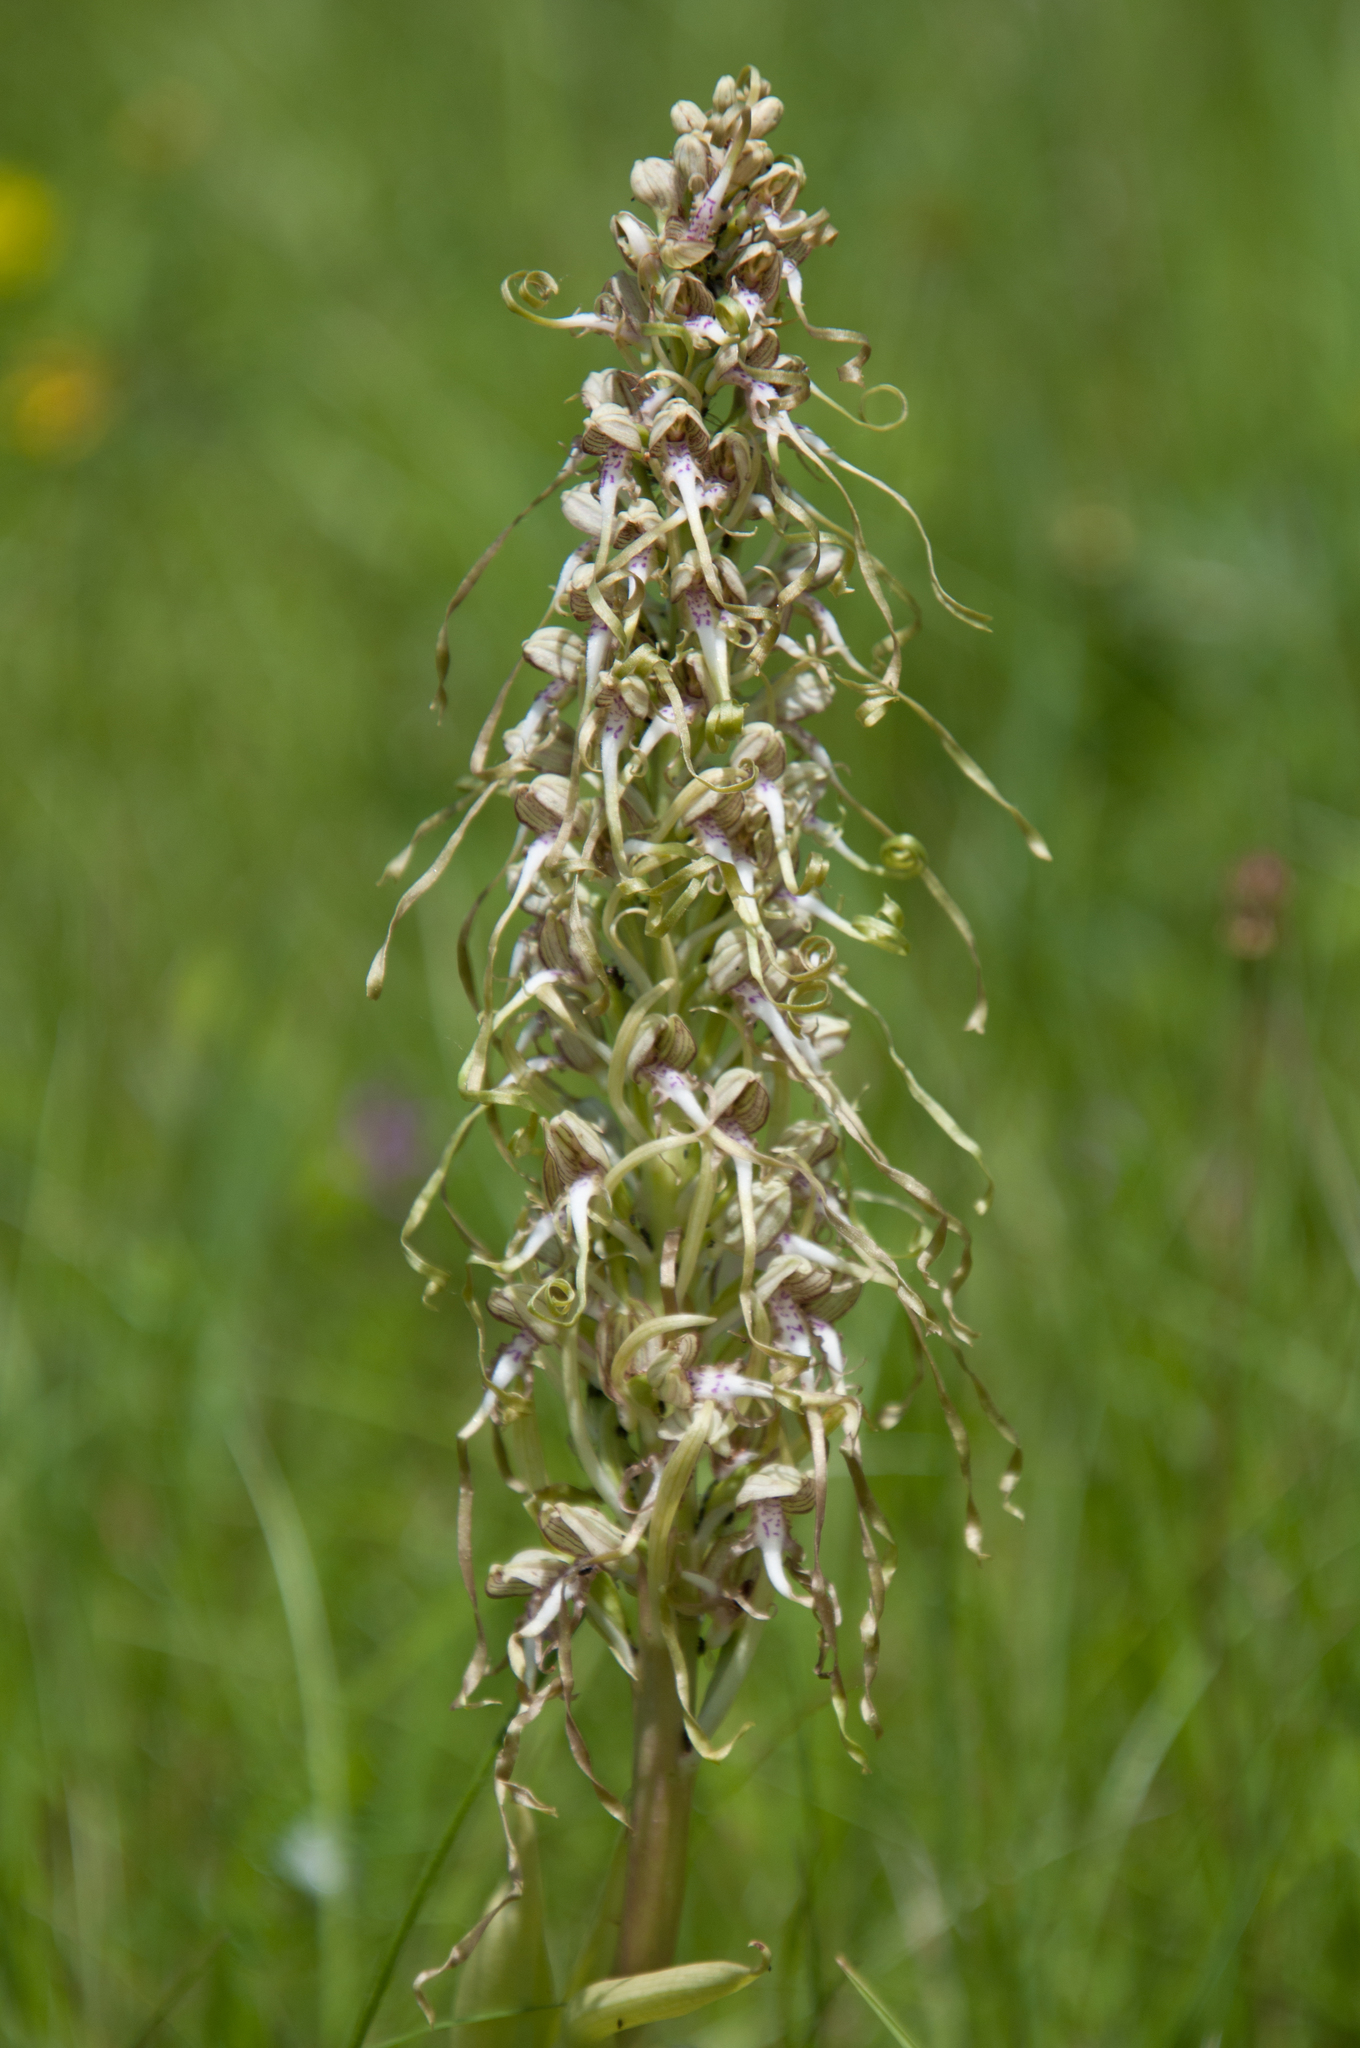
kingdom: Plantae
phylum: Tracheophyta
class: Liliopsida
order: Asparagales
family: Orchidaceae
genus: Himantoglossum
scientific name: Himantoglossum hircinum
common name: Lizard orchid
